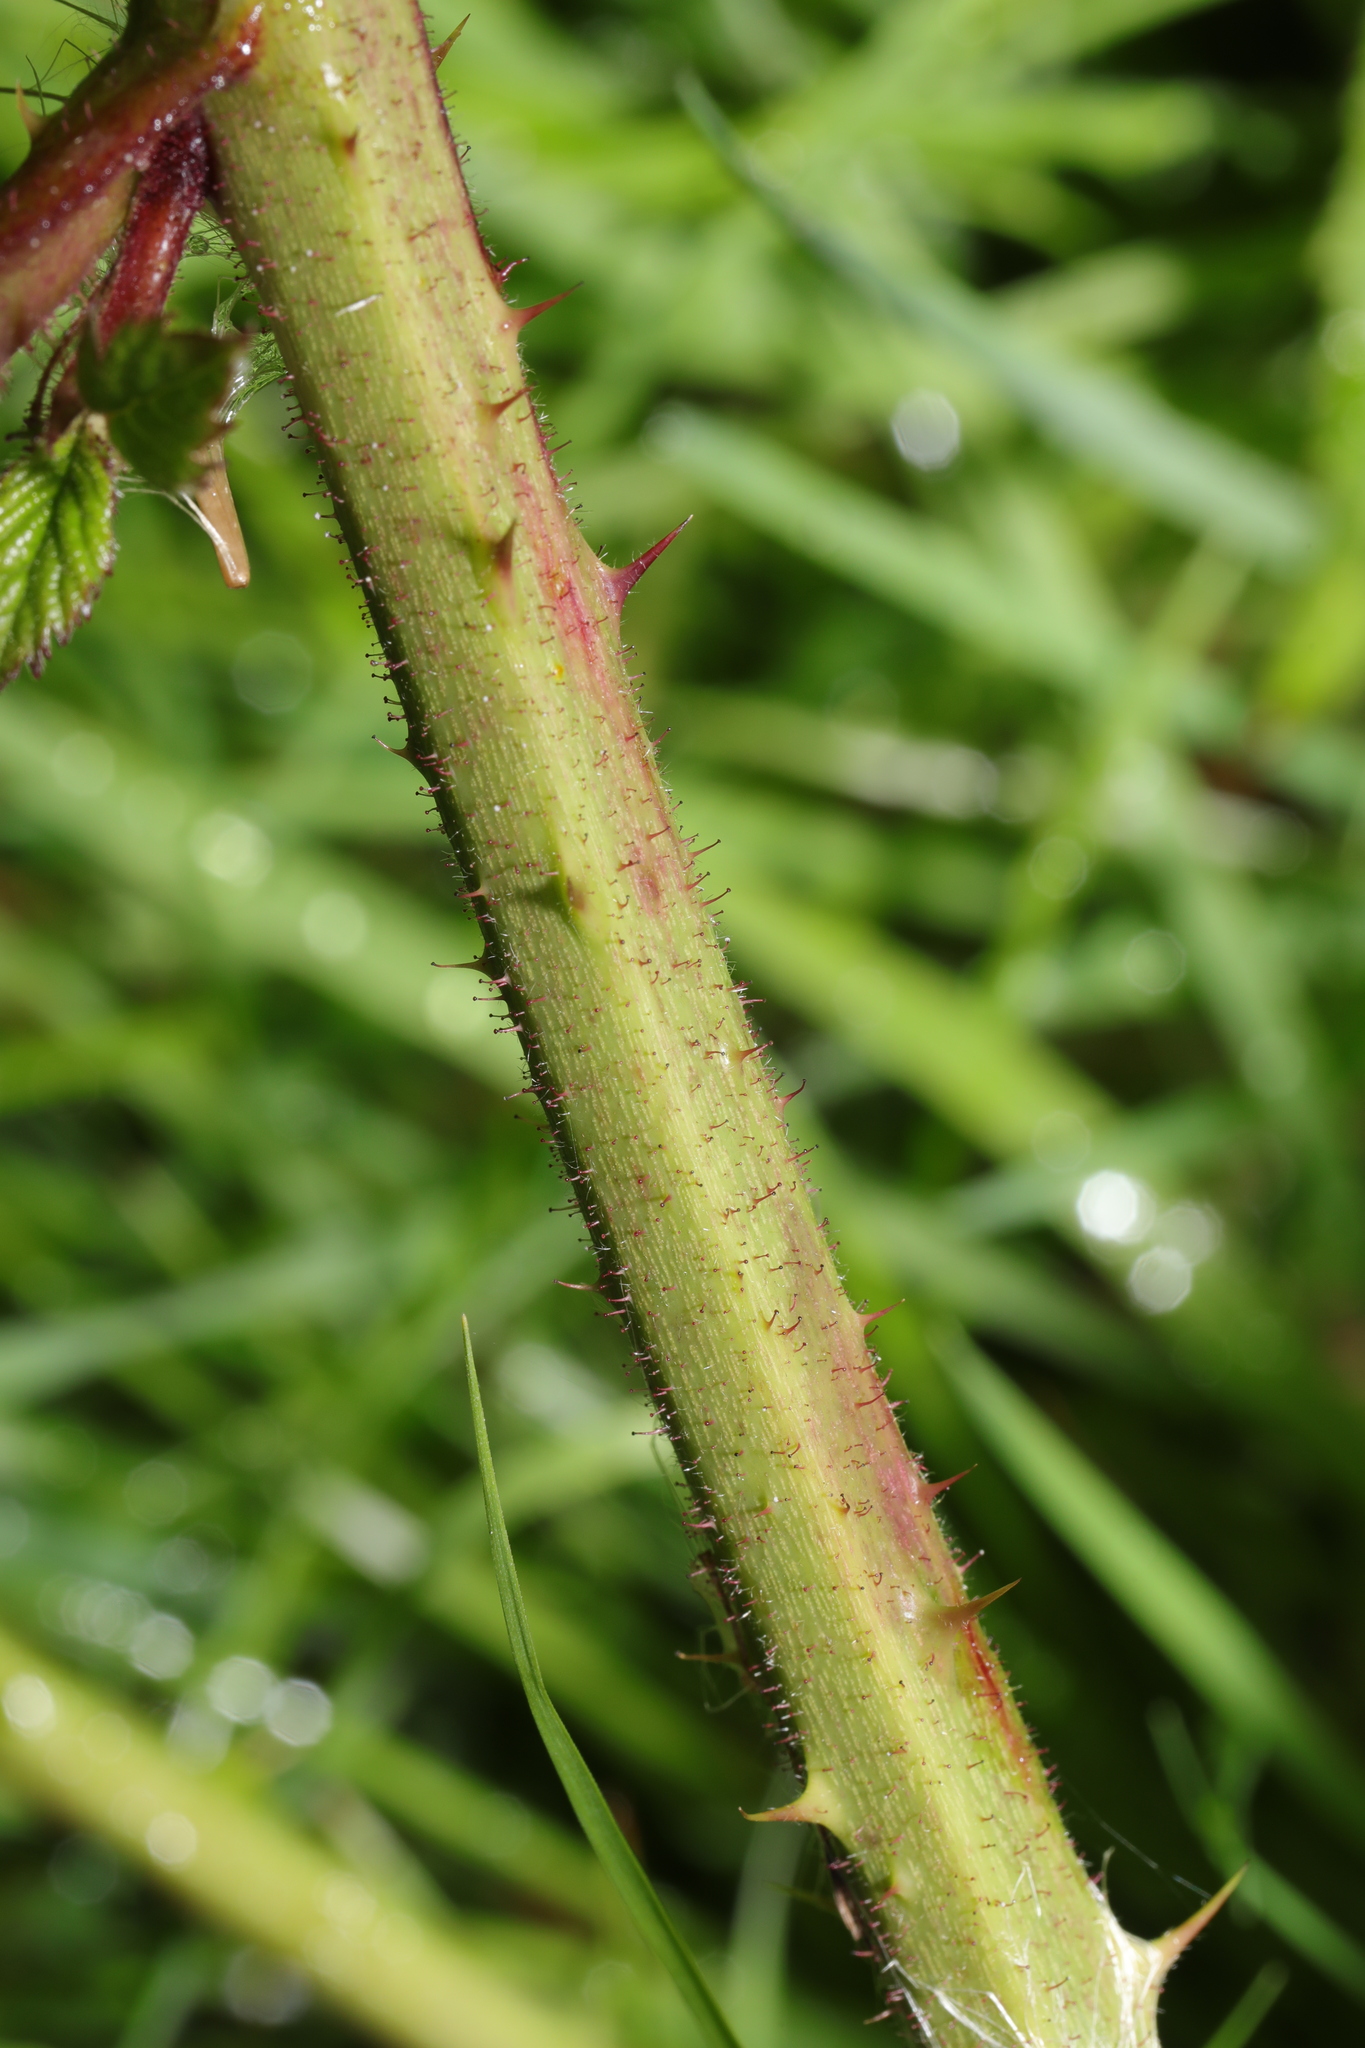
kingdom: Plantae
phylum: Tracheophyta
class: Magnoliopsida
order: Rosales
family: Rosaceae
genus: Rubus
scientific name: Rubus rufescens
